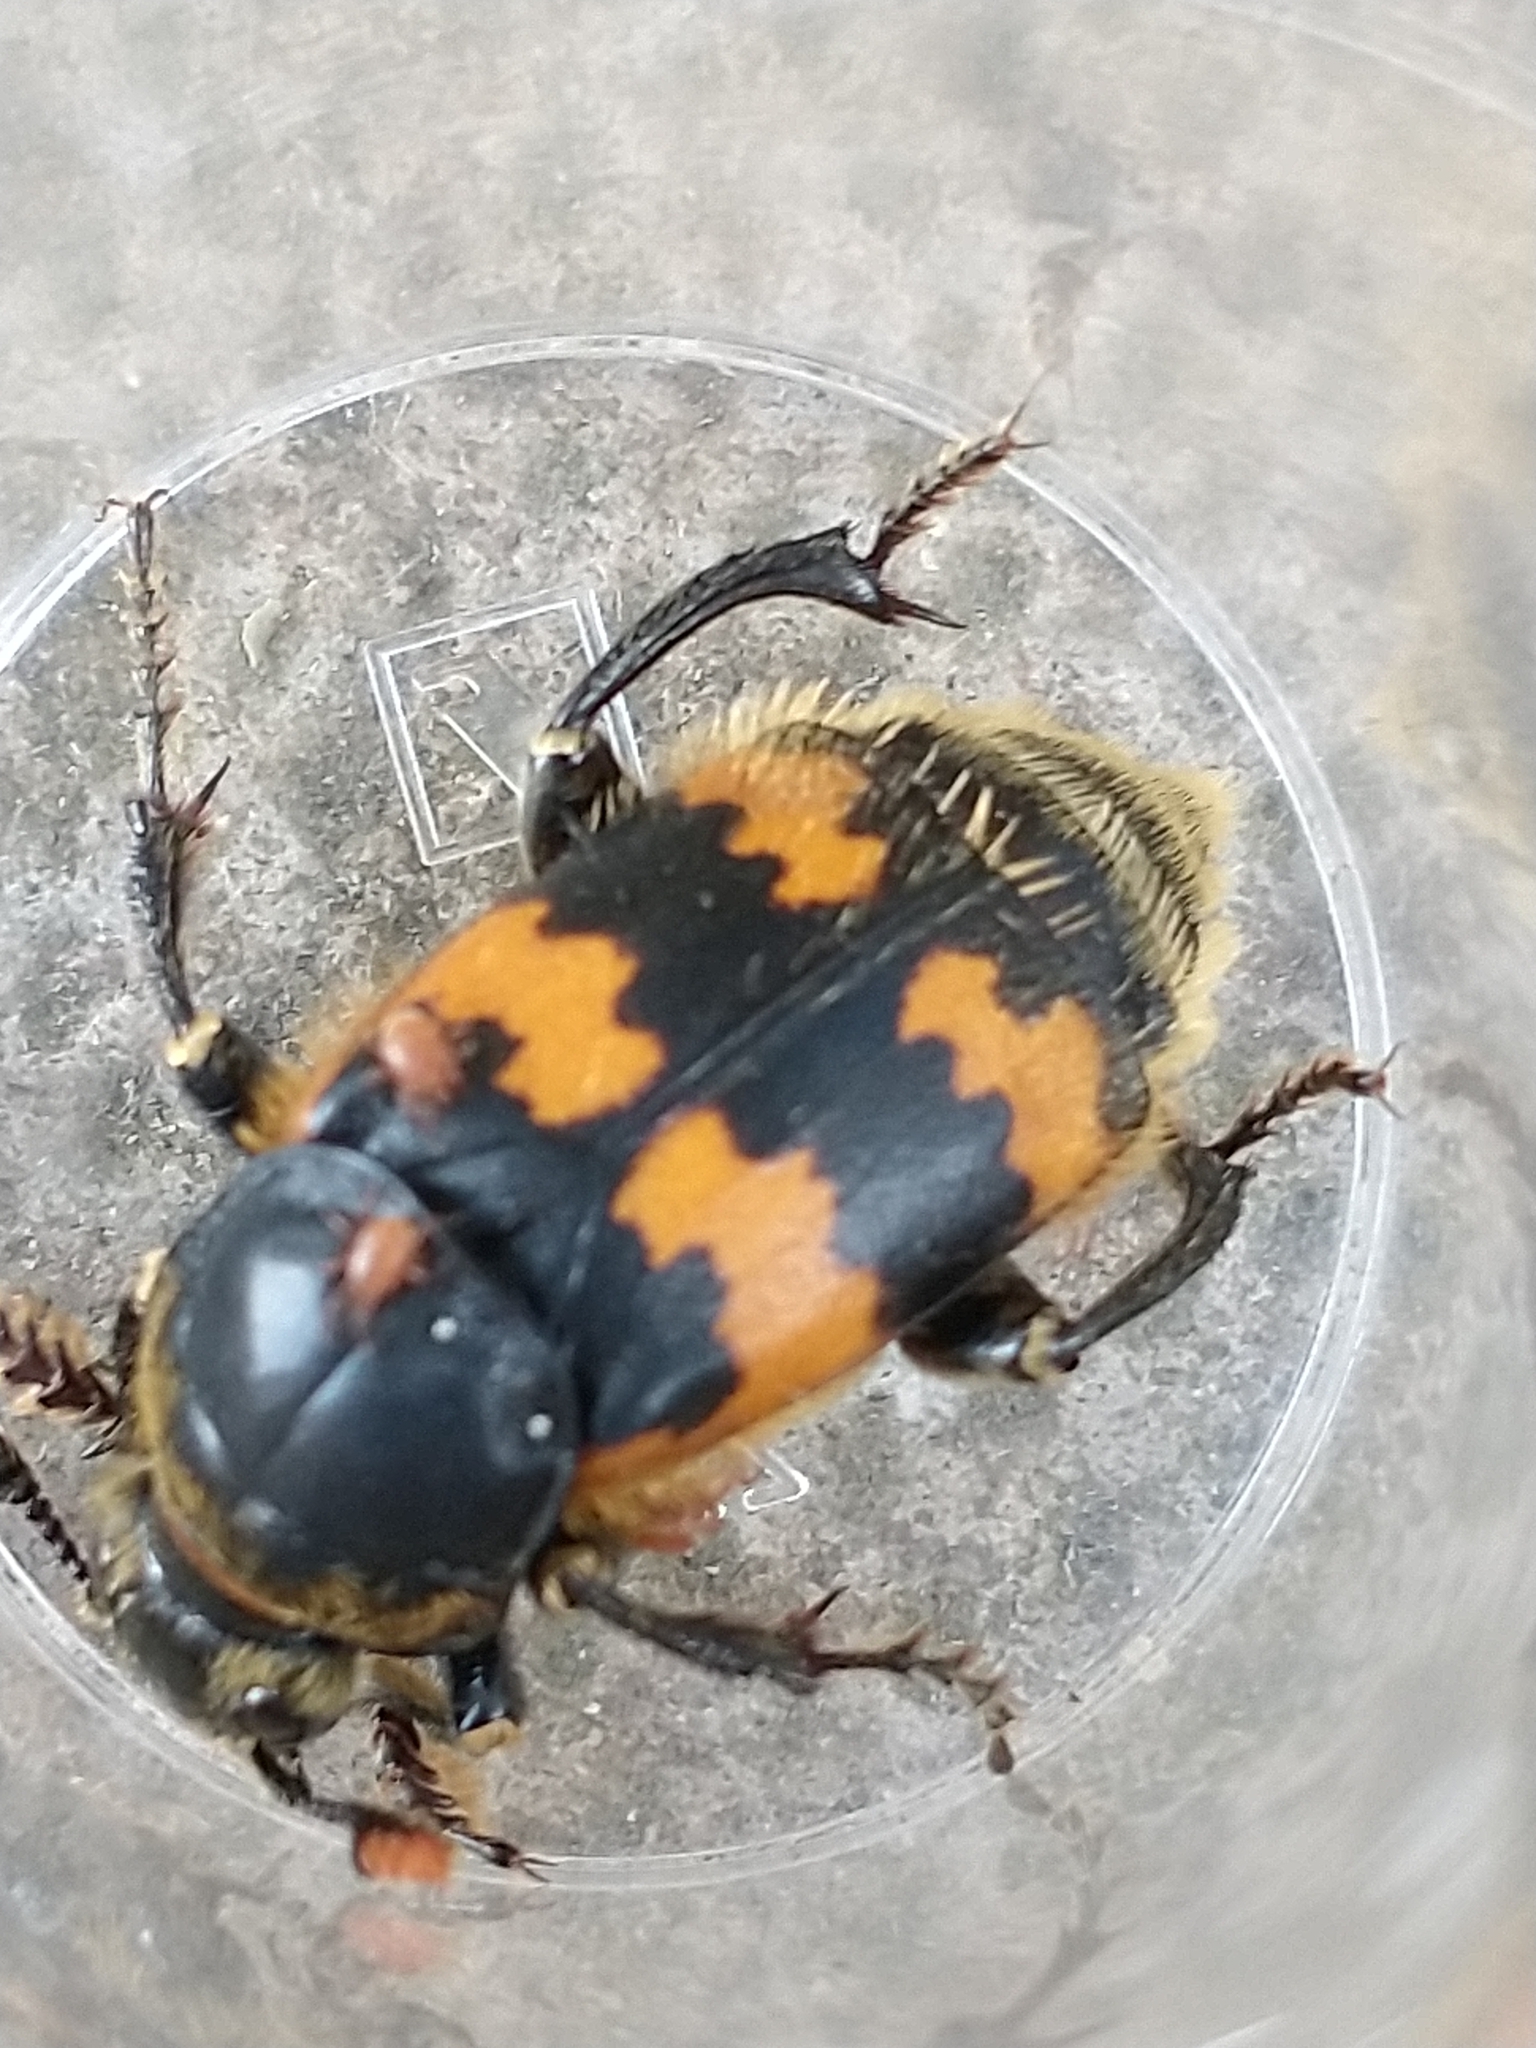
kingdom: Animalia
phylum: Arthropoda
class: Insecta
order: Coleoptera
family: Staphylinidae
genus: Nicrophorus
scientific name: Nicrophorus vespillo
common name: Common burying beetle
